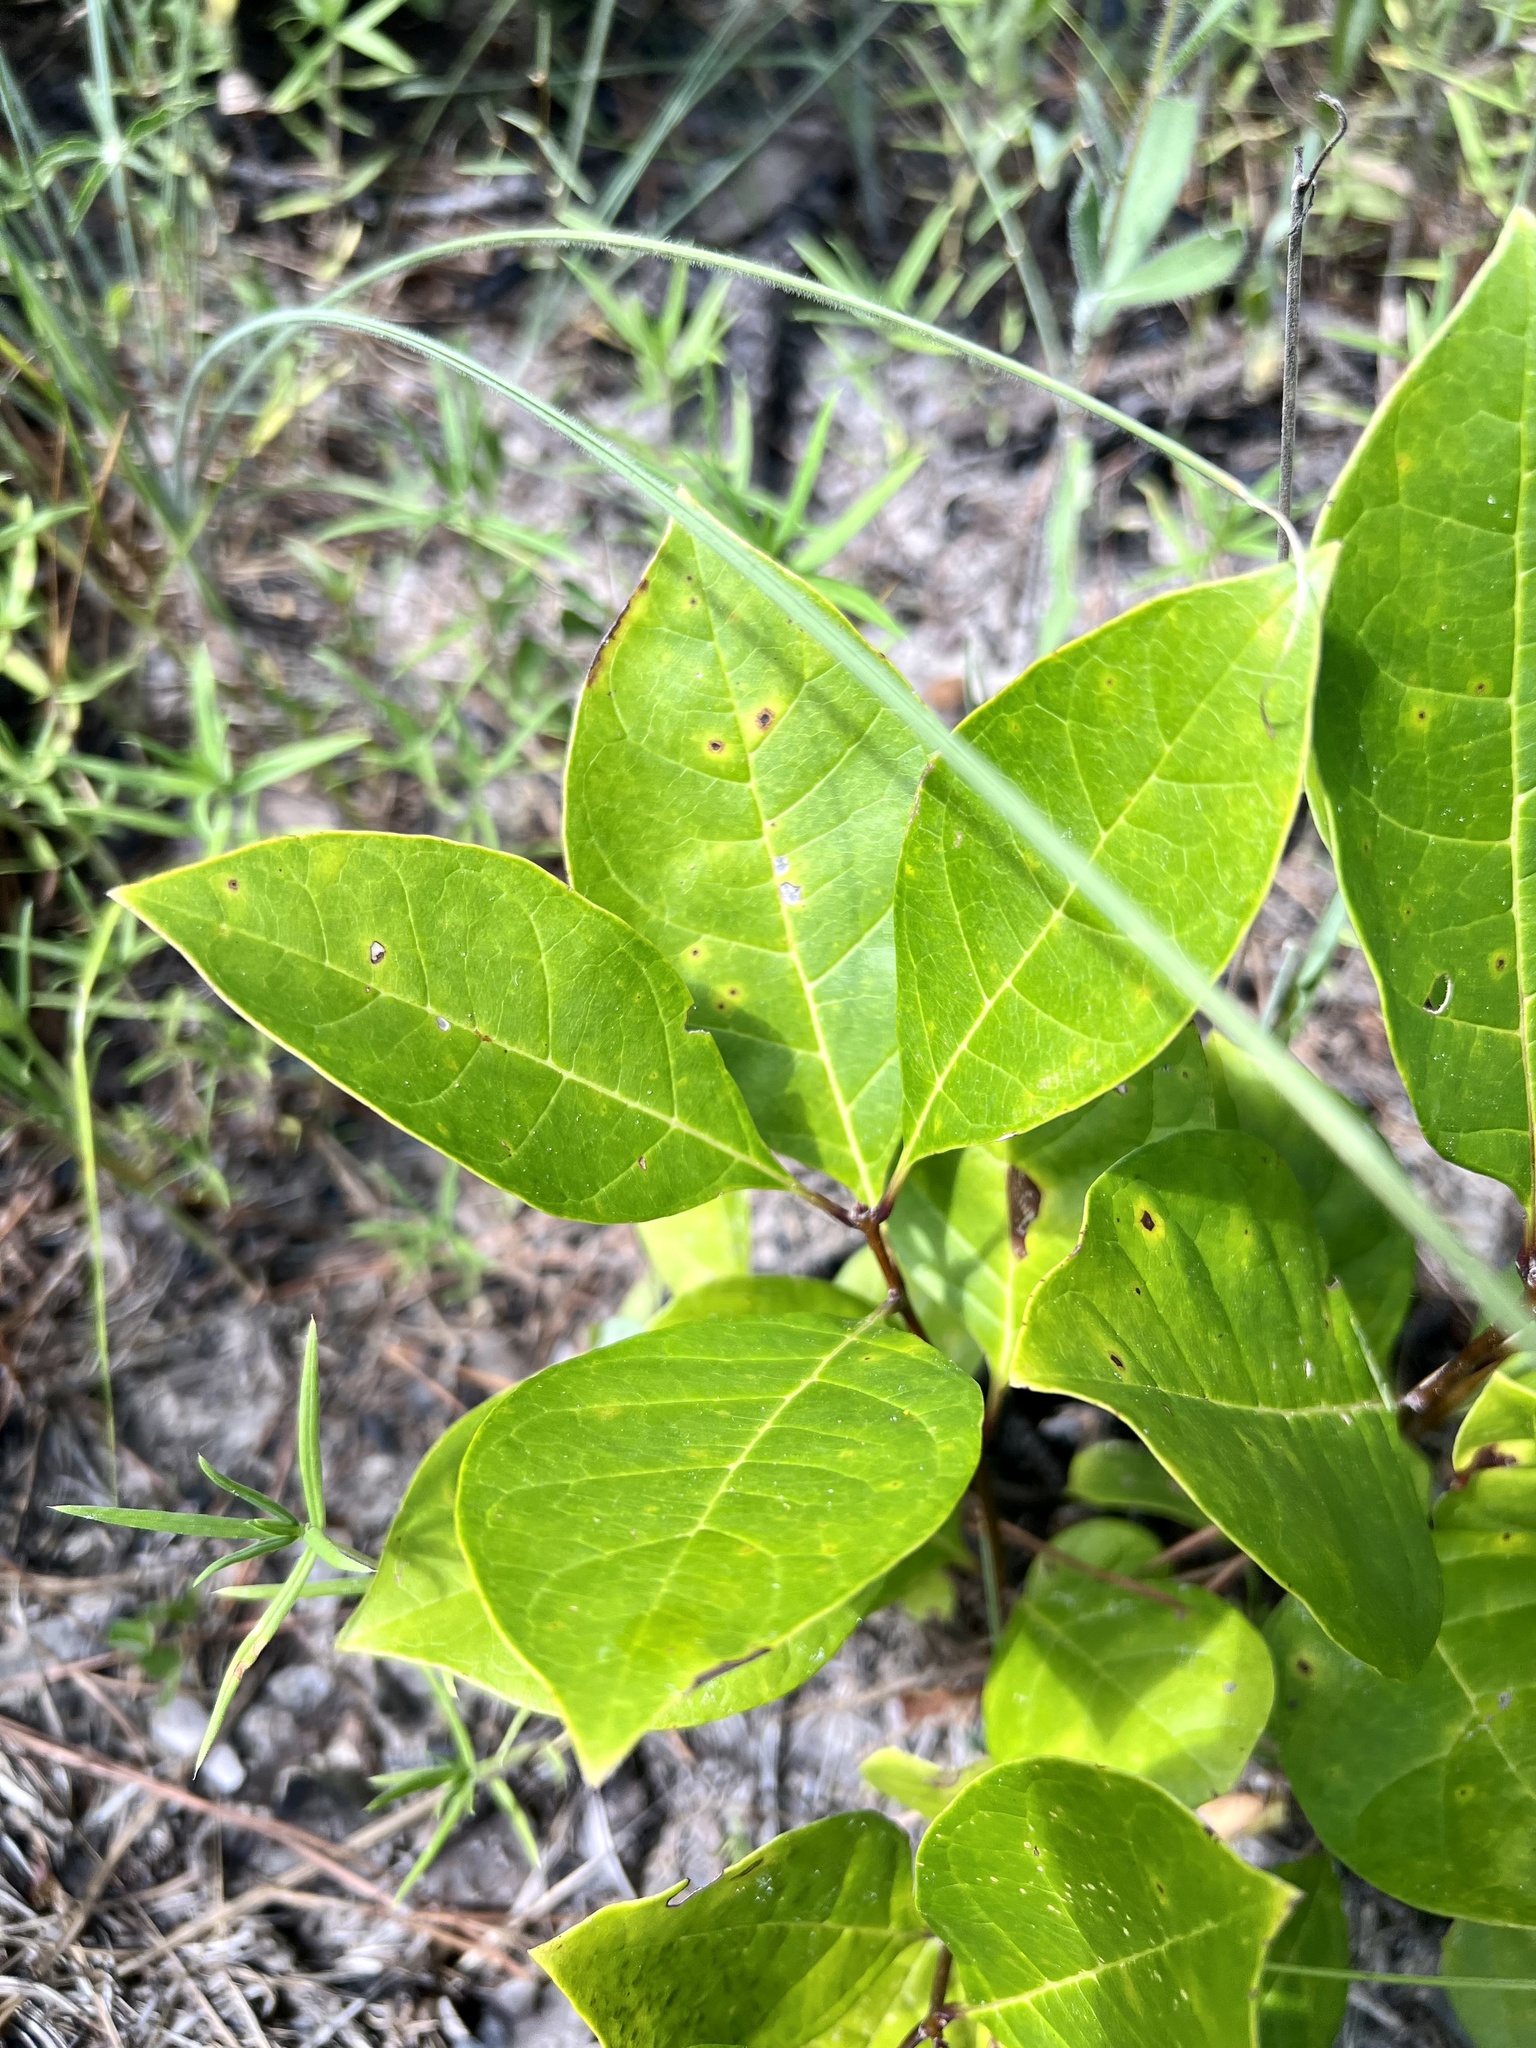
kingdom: Plantae
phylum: Tracheophyta
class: Magnoliopsida
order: Lamiales
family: Oleaceae
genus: Chionanthus
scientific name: Chionanthus virginicus
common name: American fringetree
